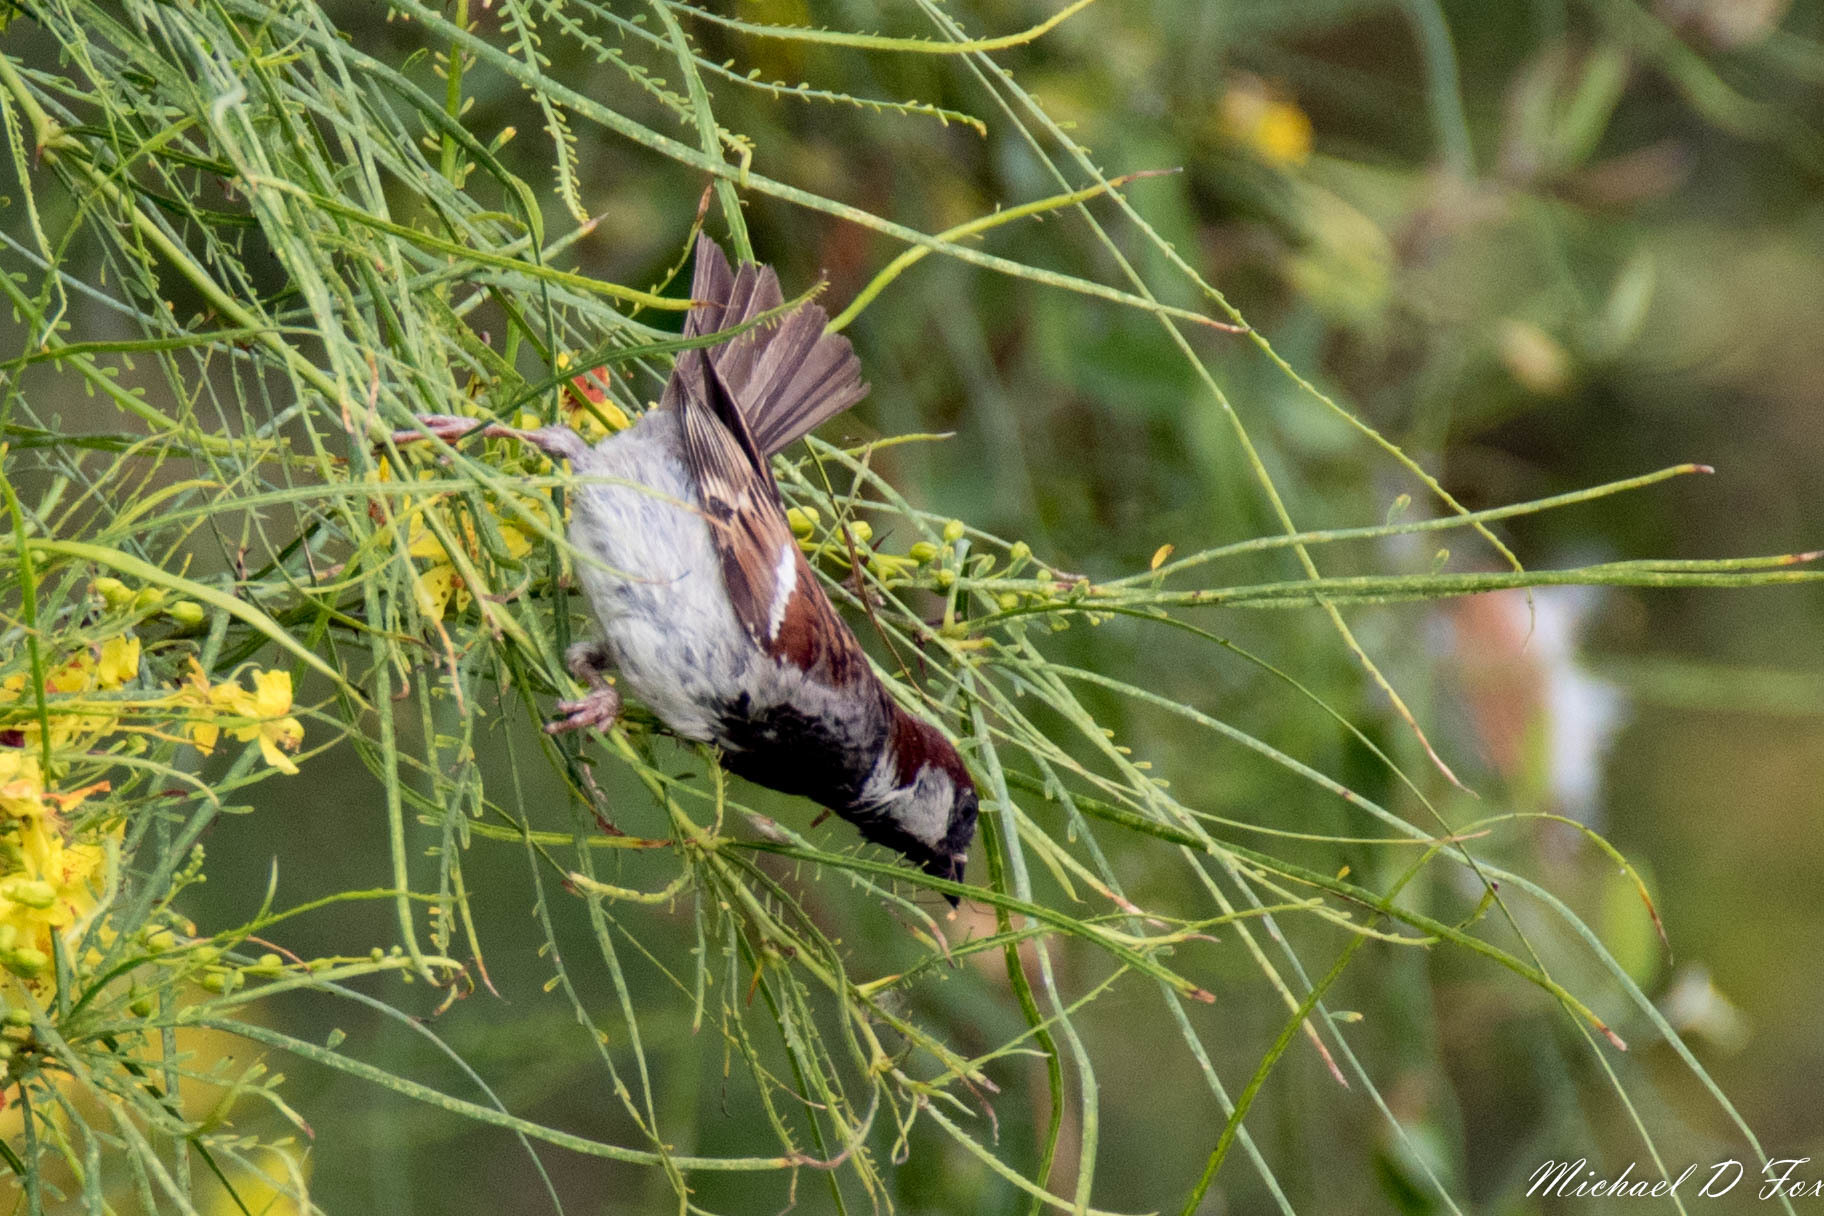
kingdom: Animalia
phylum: Chordata
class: Aves
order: Passeriformes
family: Passeridae
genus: Passer
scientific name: Passer domesticus
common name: House sparrow
